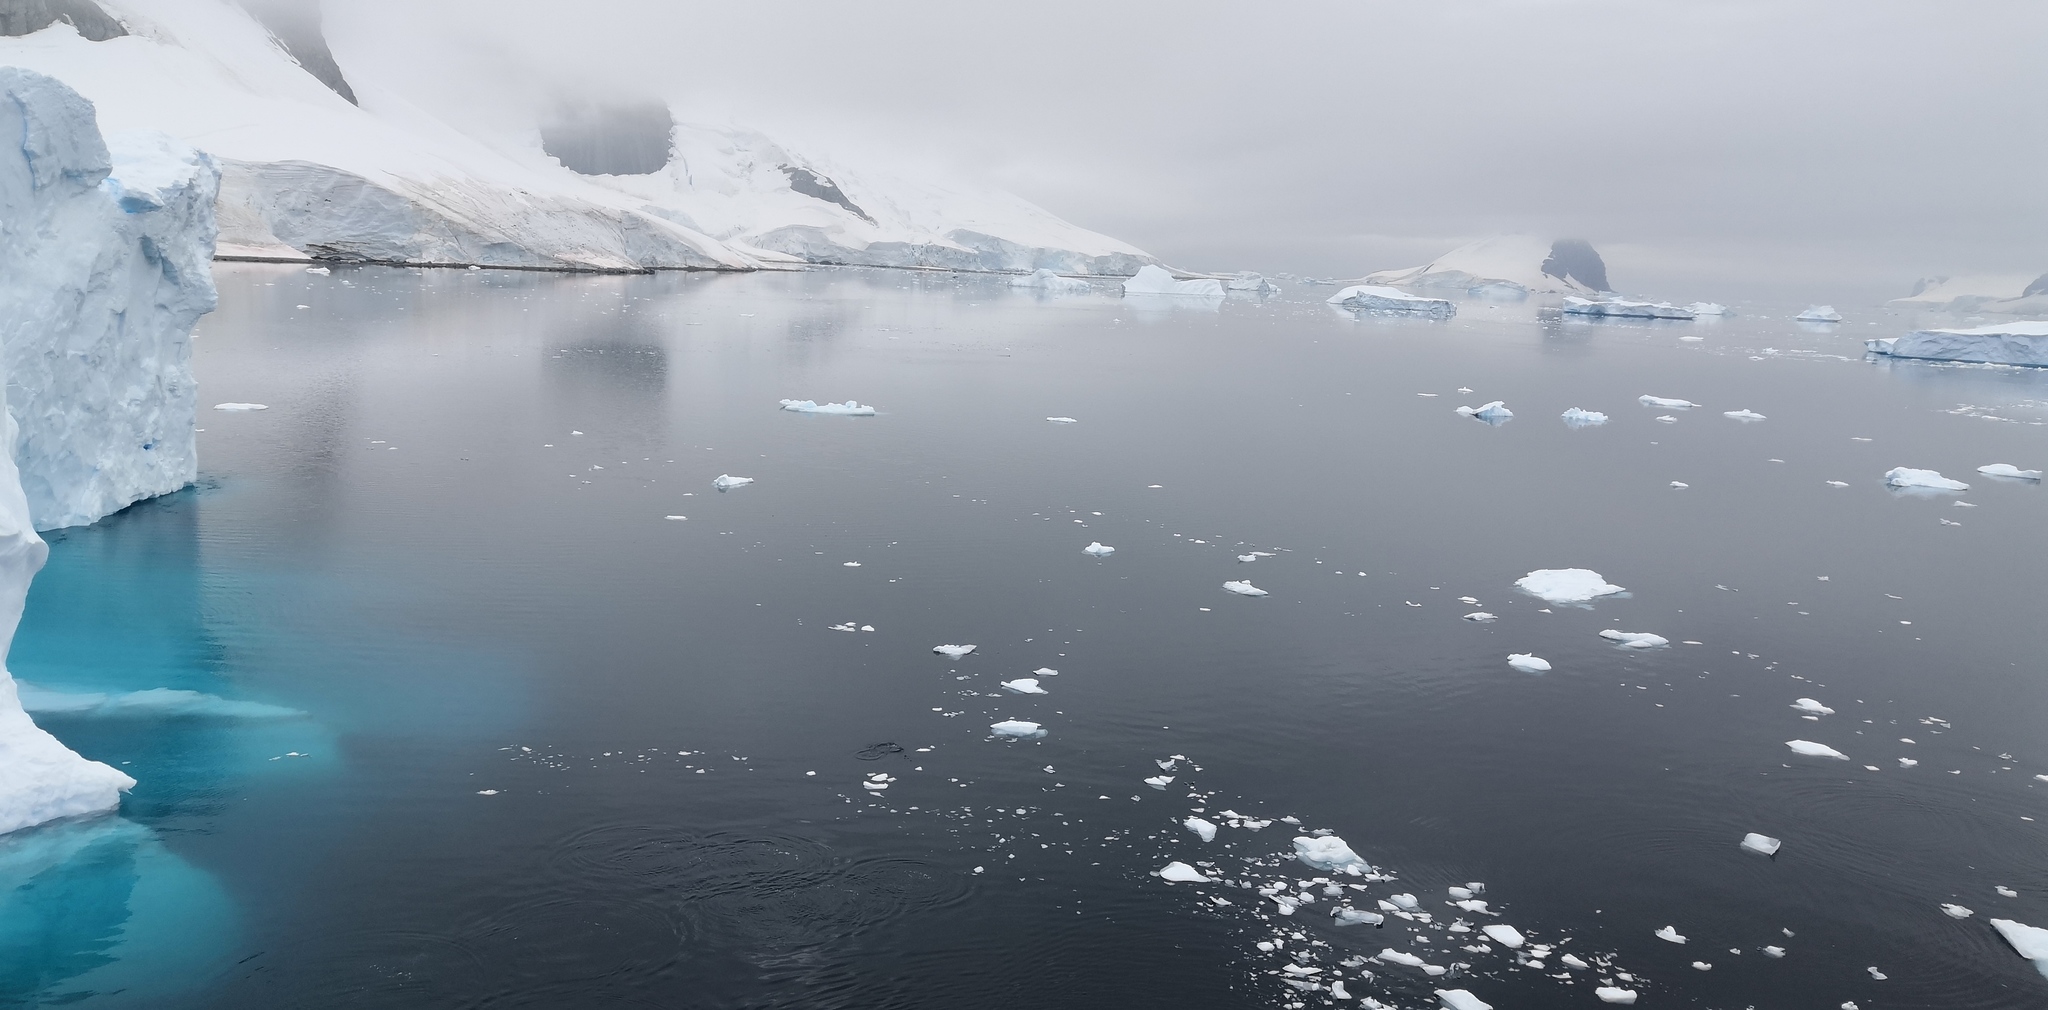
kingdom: Animalia
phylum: Chordata
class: Aves
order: Sphenisciformes
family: Spheniscidae
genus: Pygoscelis
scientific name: Pygoscelis papua
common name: Gentoo penguin
